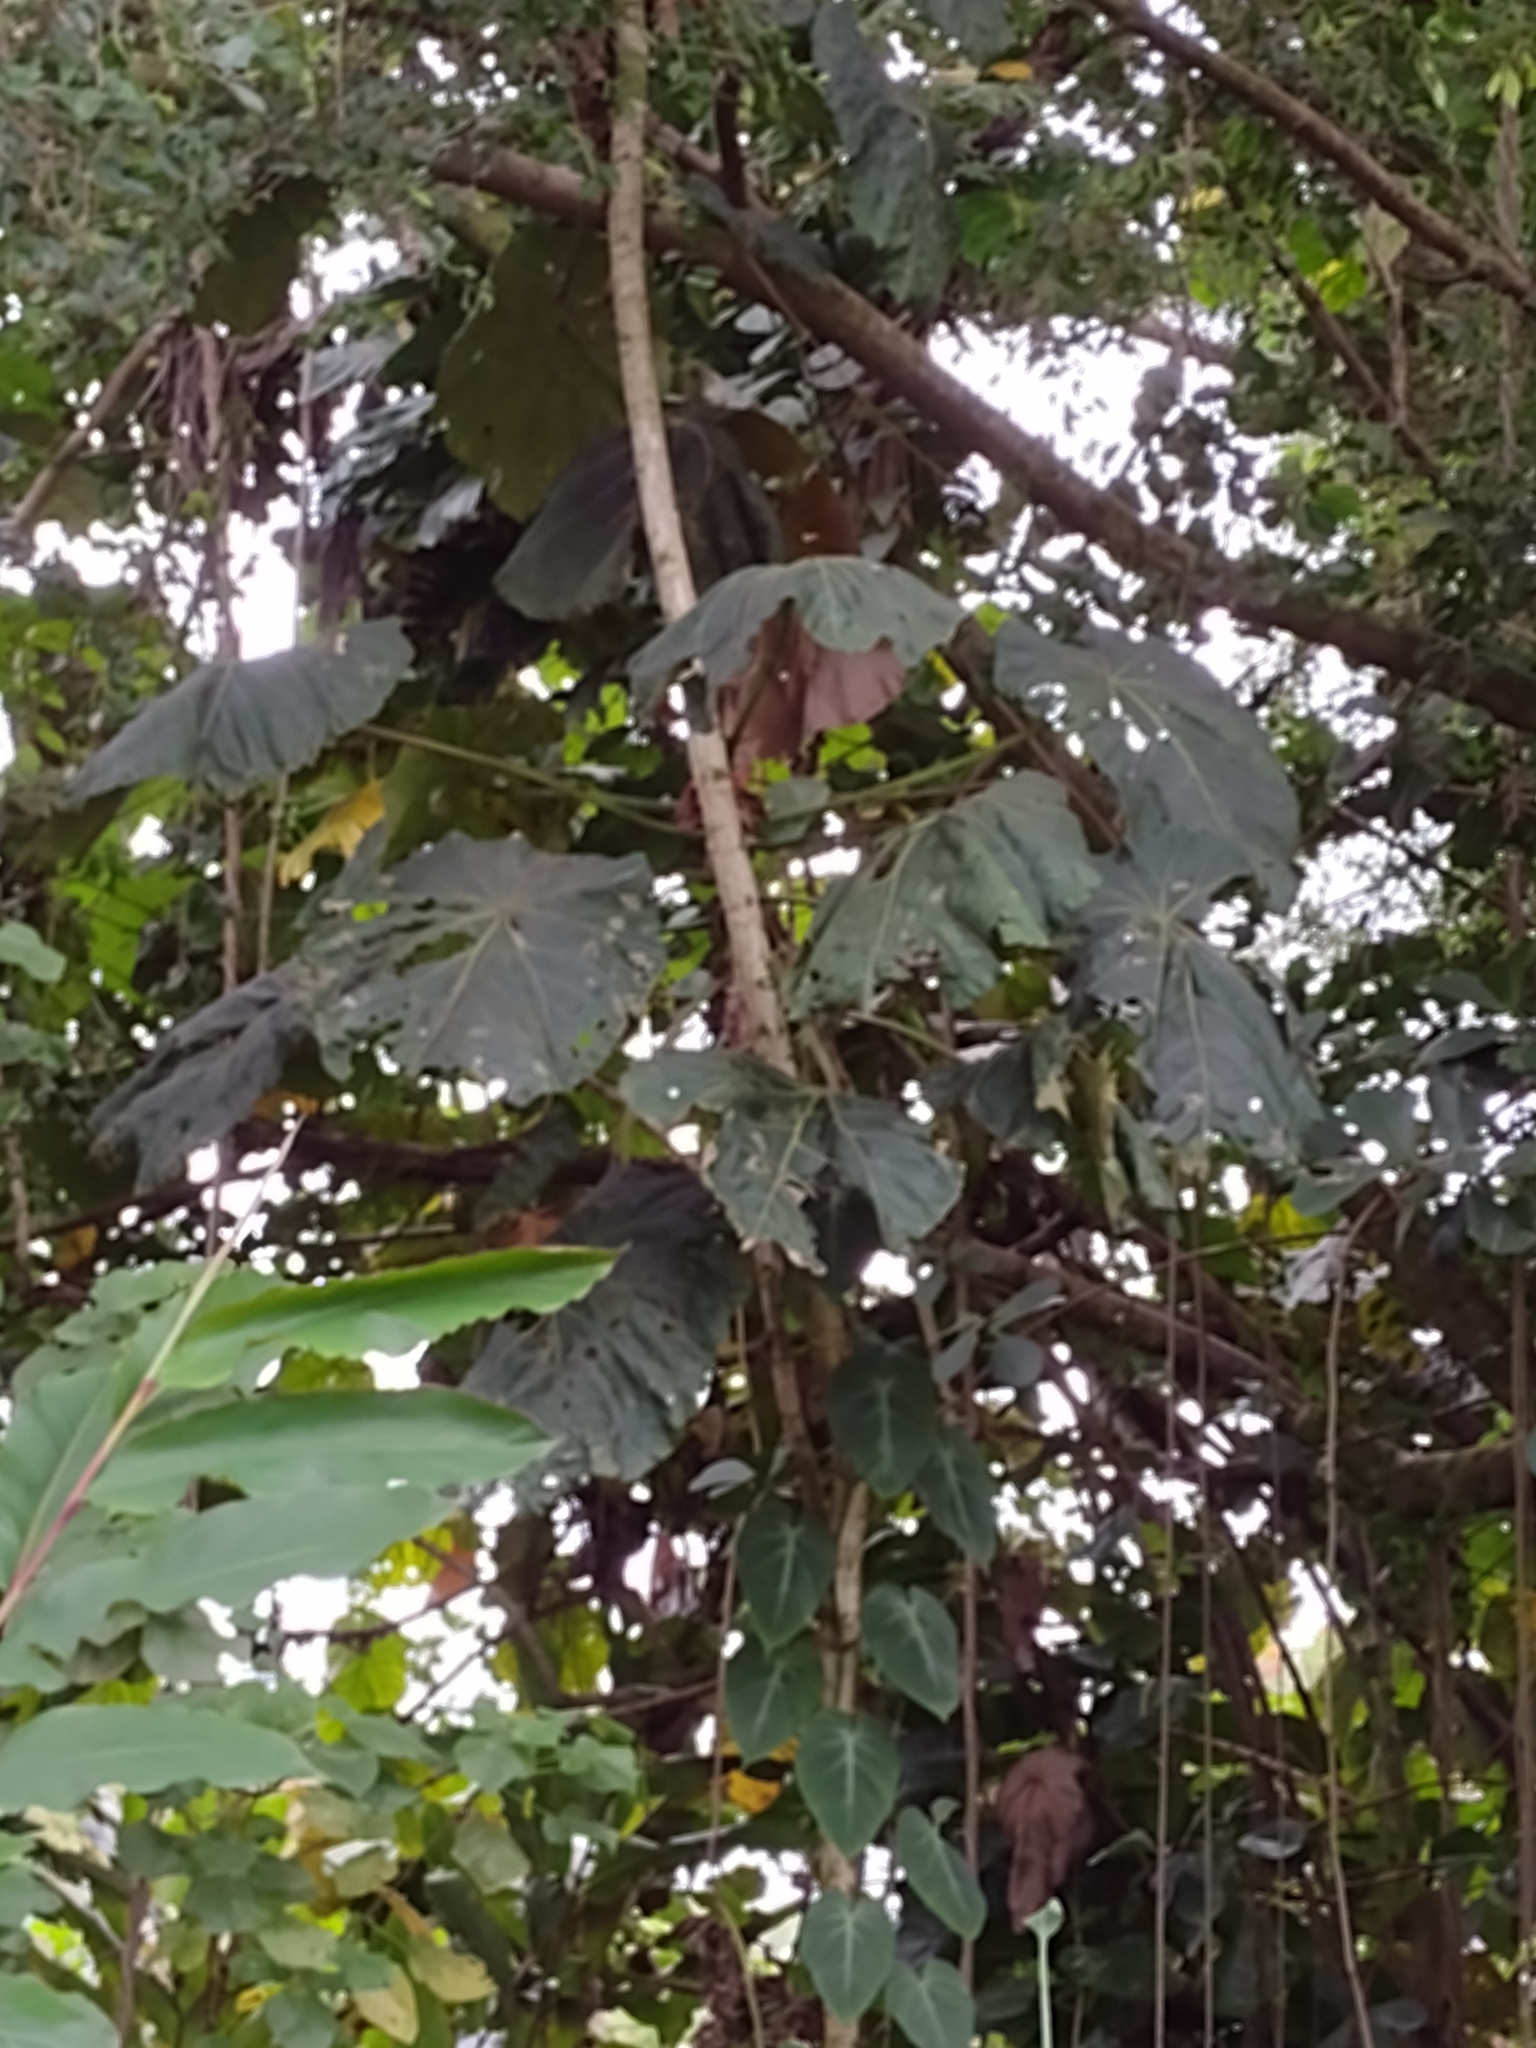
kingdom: Plantae
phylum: Tracheophyta
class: Magnoliopsida
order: Malpighiales
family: Euphorbiaceae
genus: Macaranga
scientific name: Macaranga mappa
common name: Pengua
